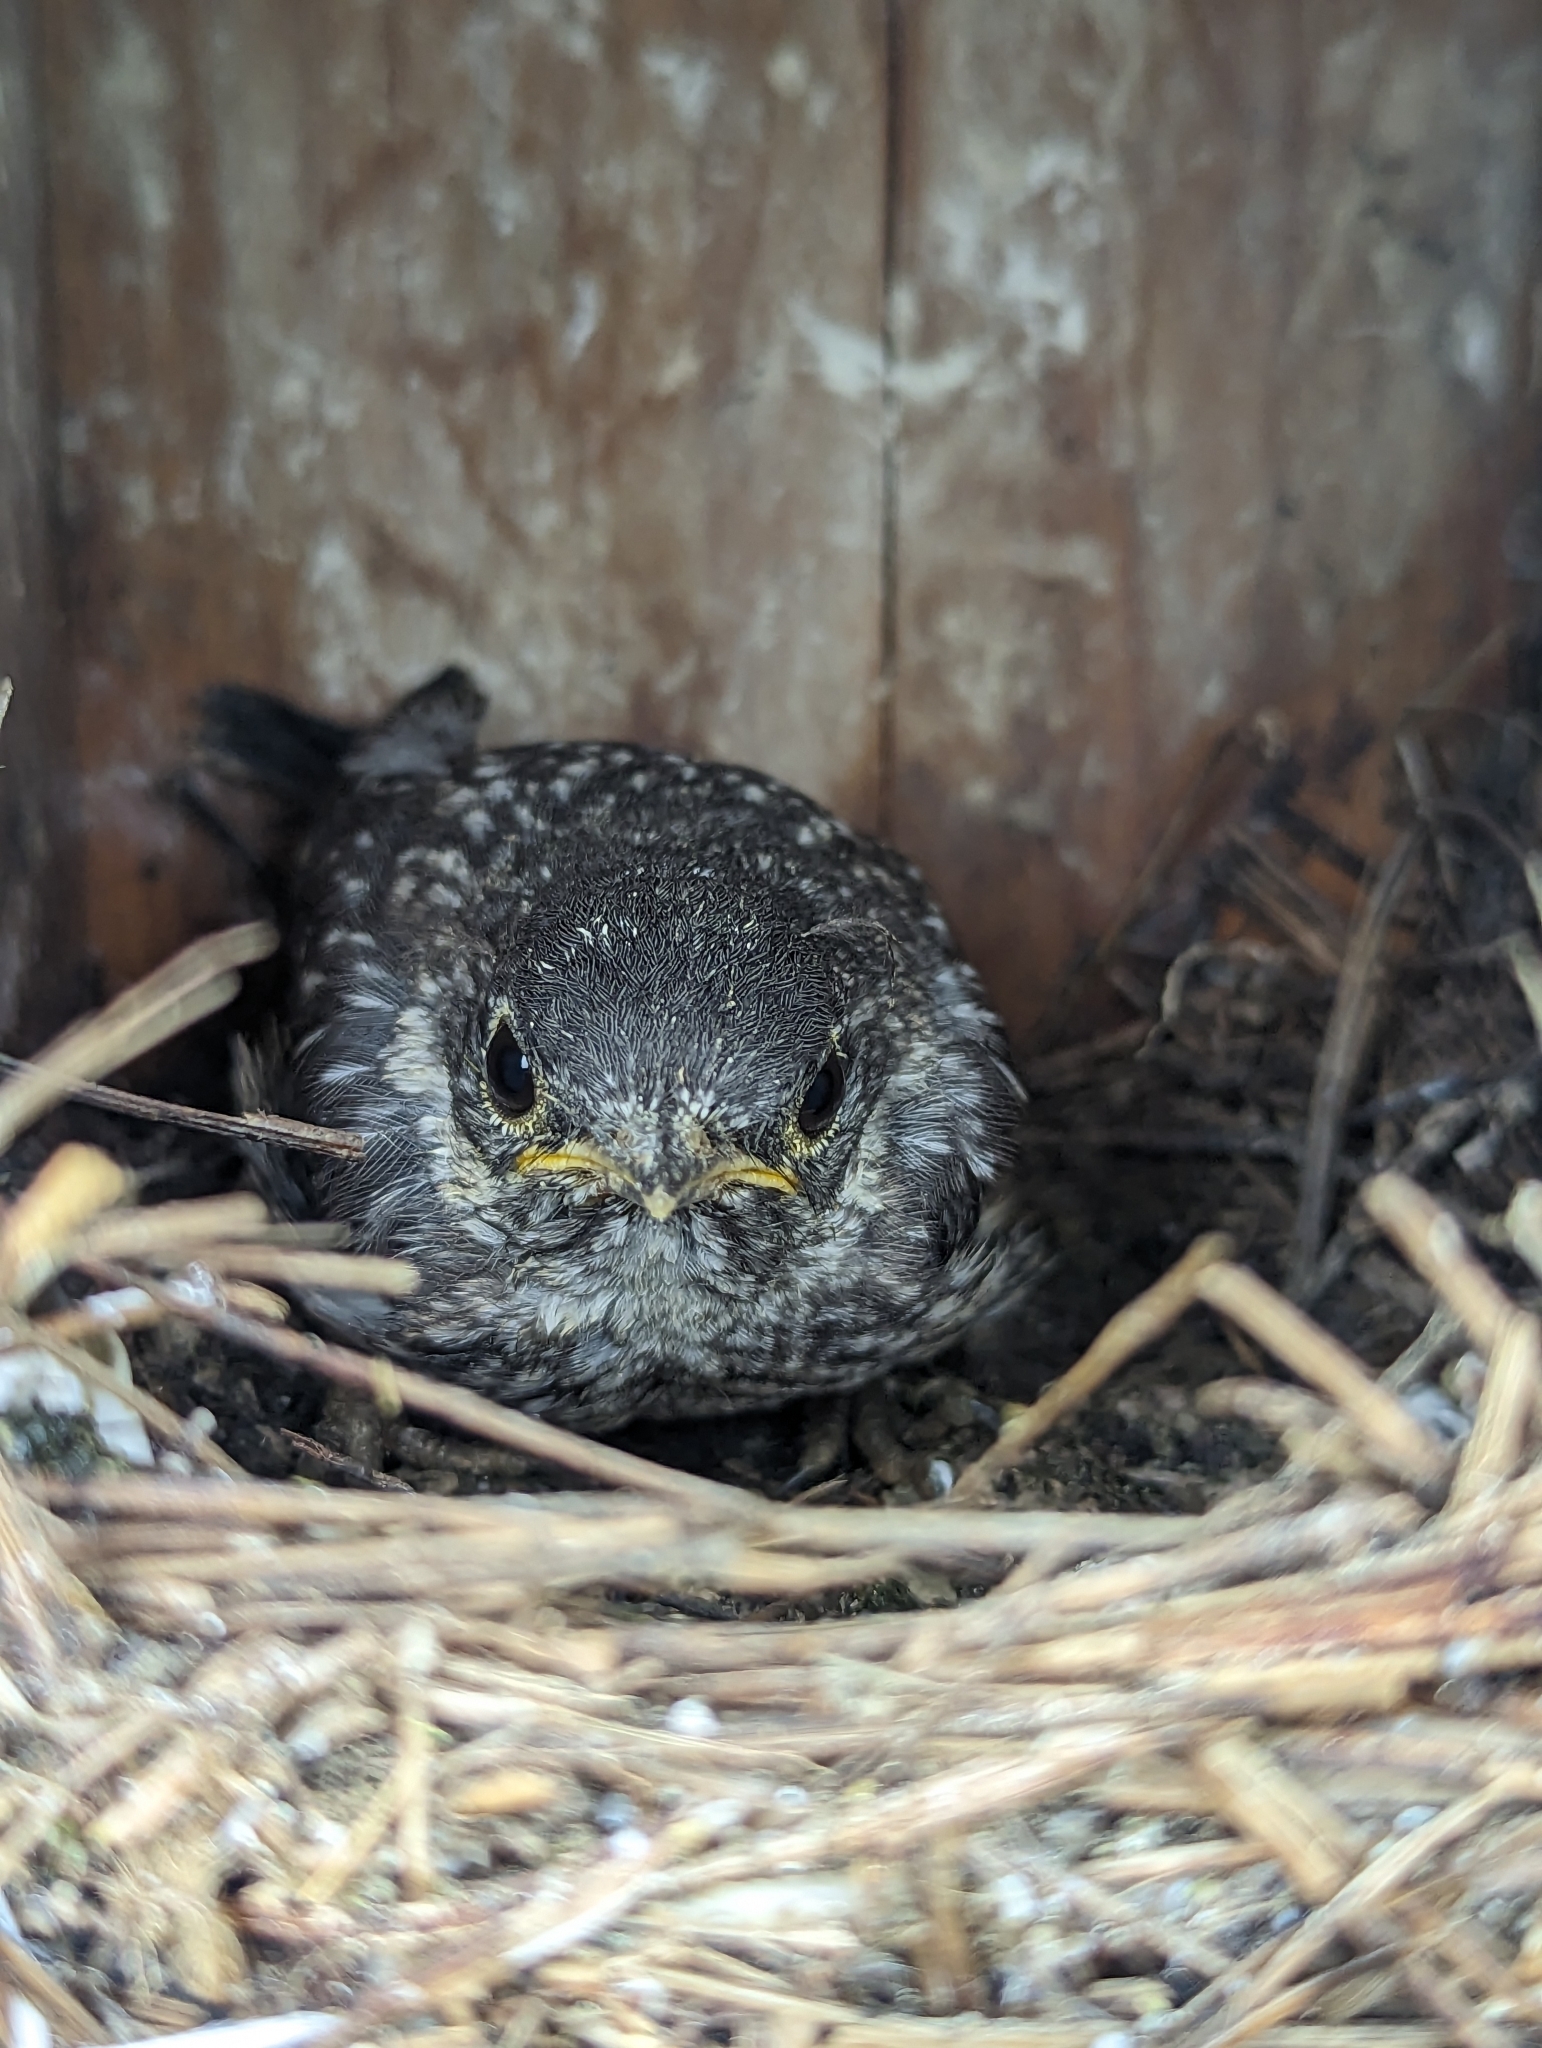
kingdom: Animalia
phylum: Chordata
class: Aves
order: Passeriformes
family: Turdidae
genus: Sialia
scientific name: Sialia sialis
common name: Eastern bluebird
